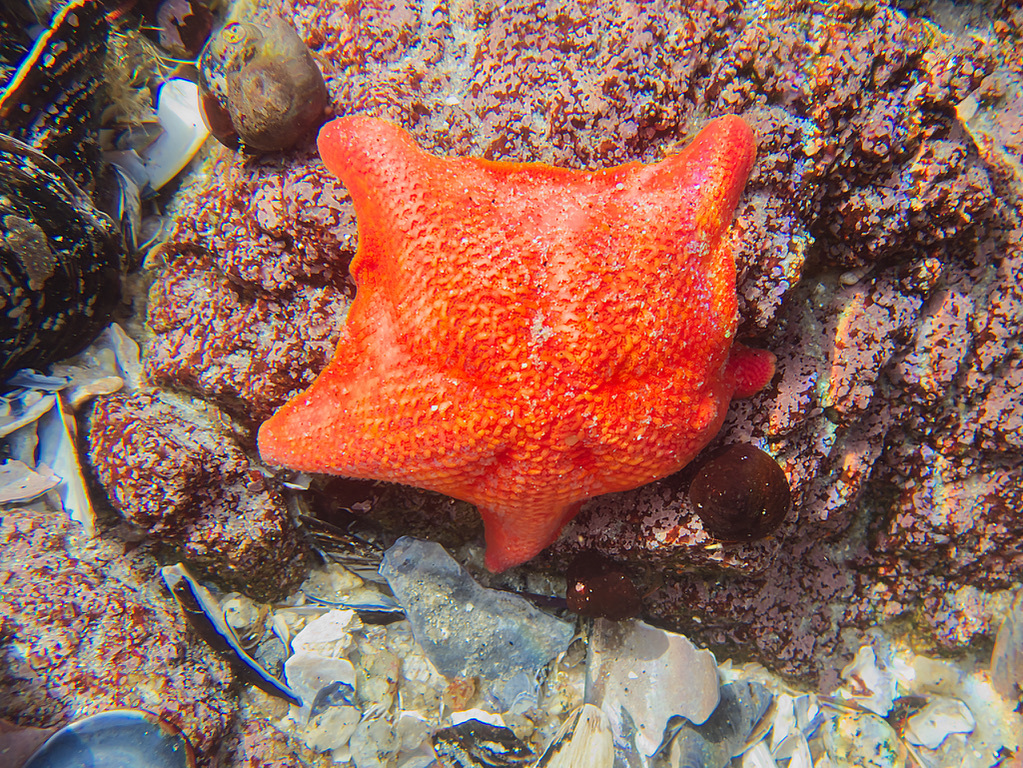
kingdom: Animalia
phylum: Echinodermata
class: Asteroidea
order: Valvatida
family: Asterinidae
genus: Patiria
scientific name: Patiria miniata
